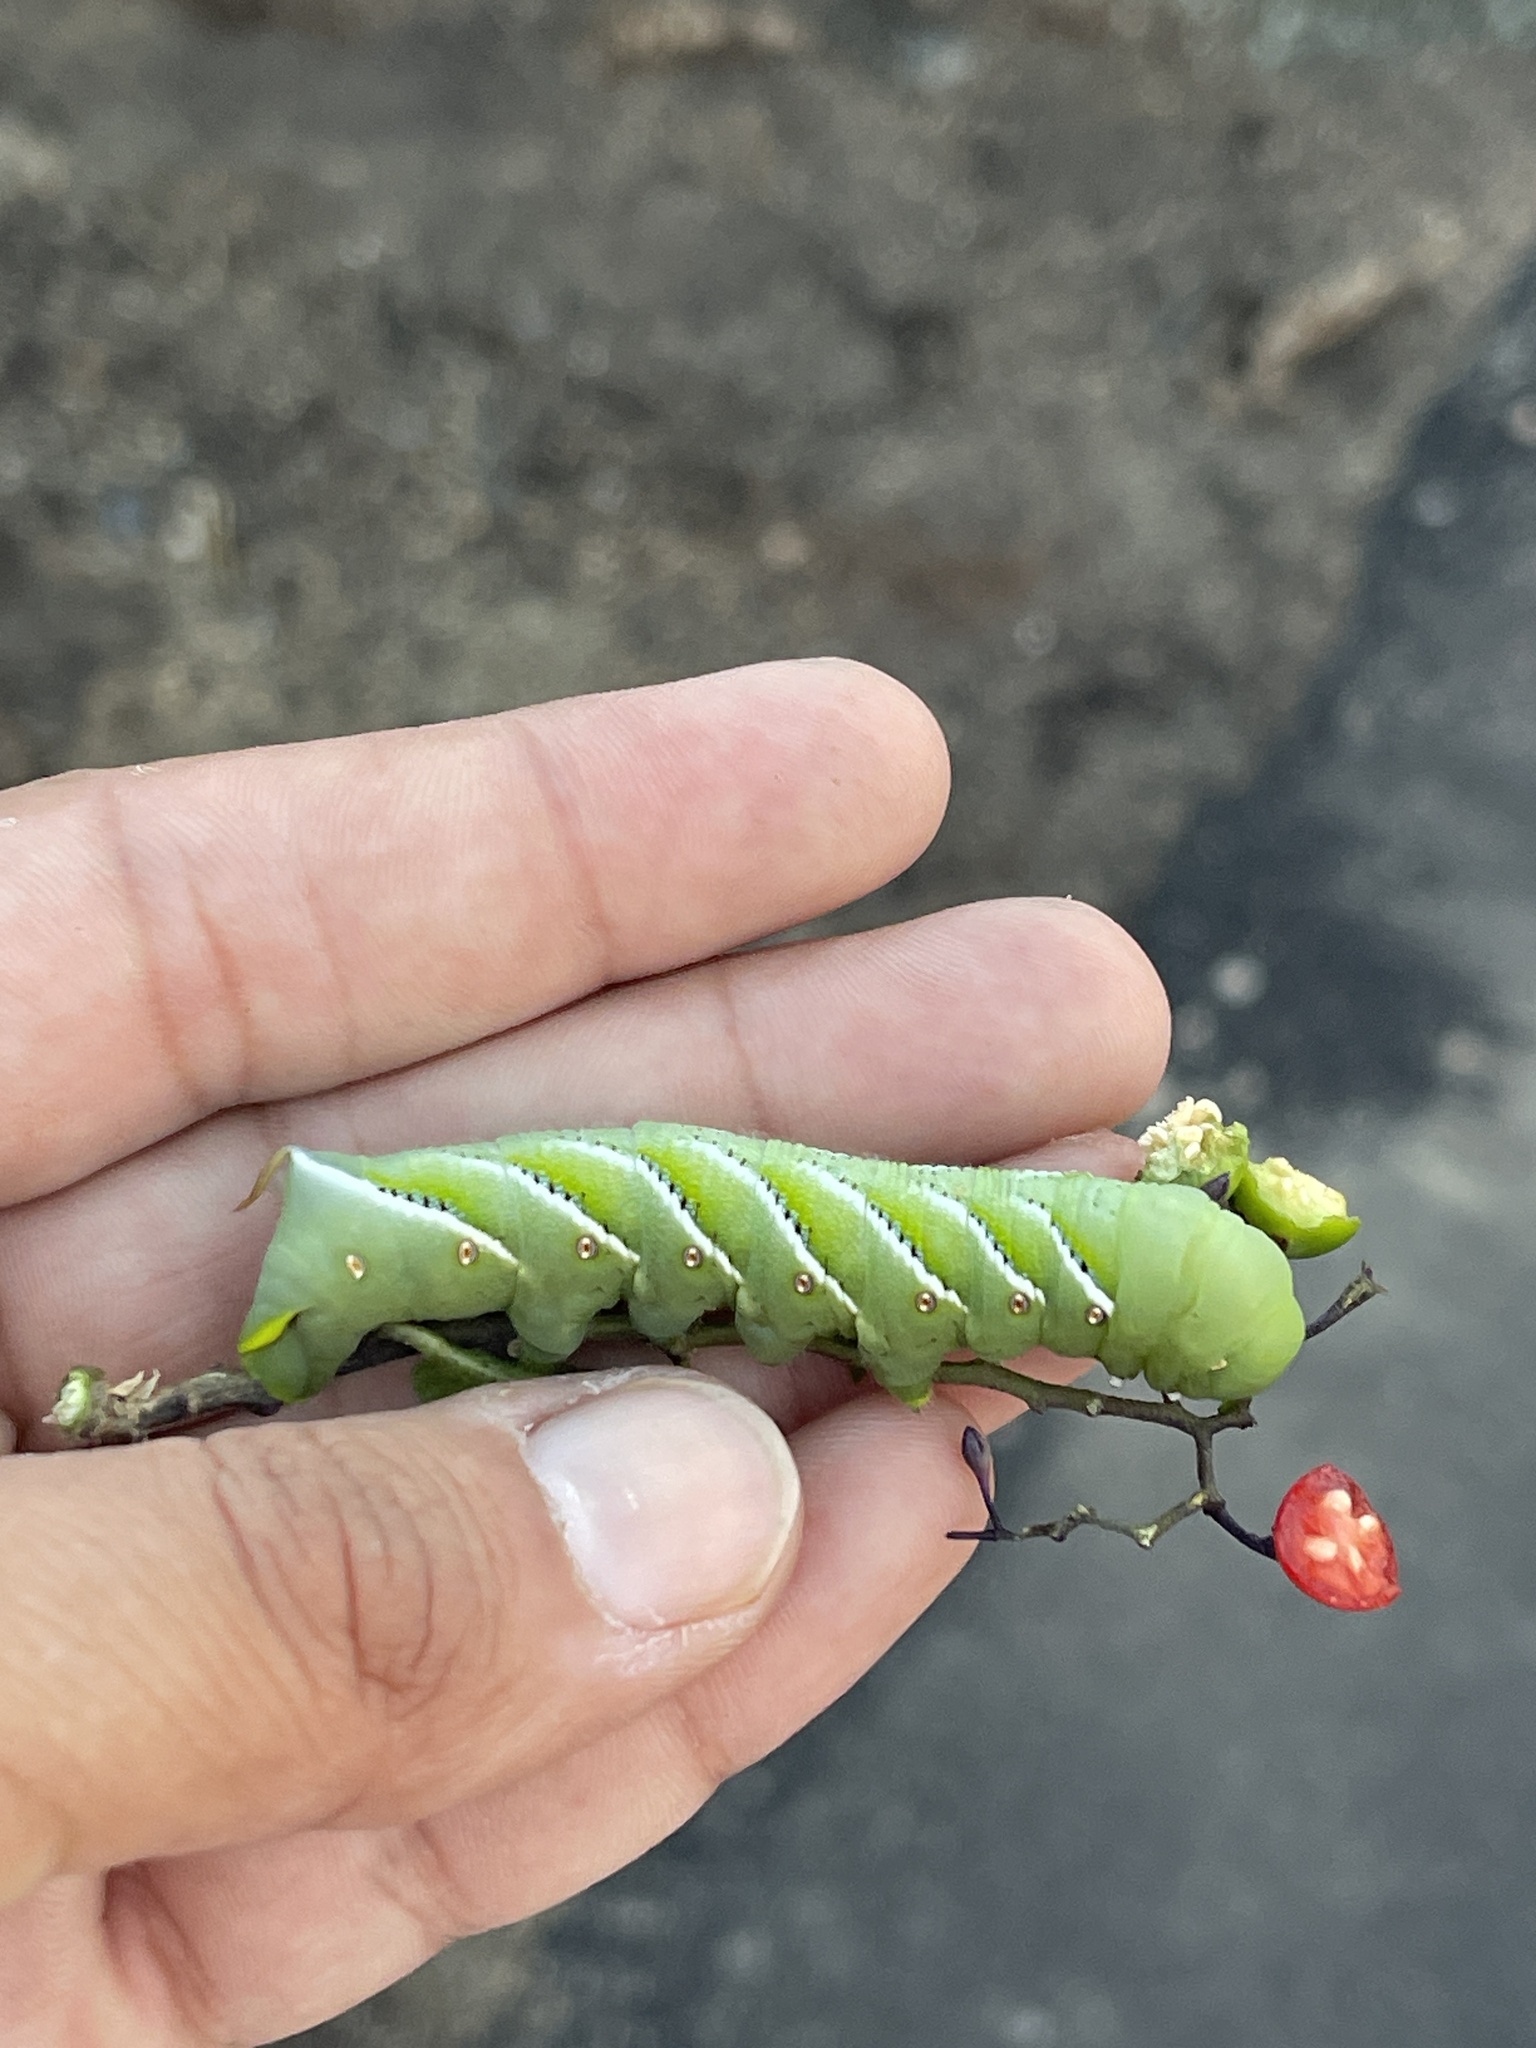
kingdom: Animalia
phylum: Arthropoda
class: Insecta
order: Lepidoptera
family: Sphingidae
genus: Manduca
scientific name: Manduca sexta
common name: Carolina sphinx
